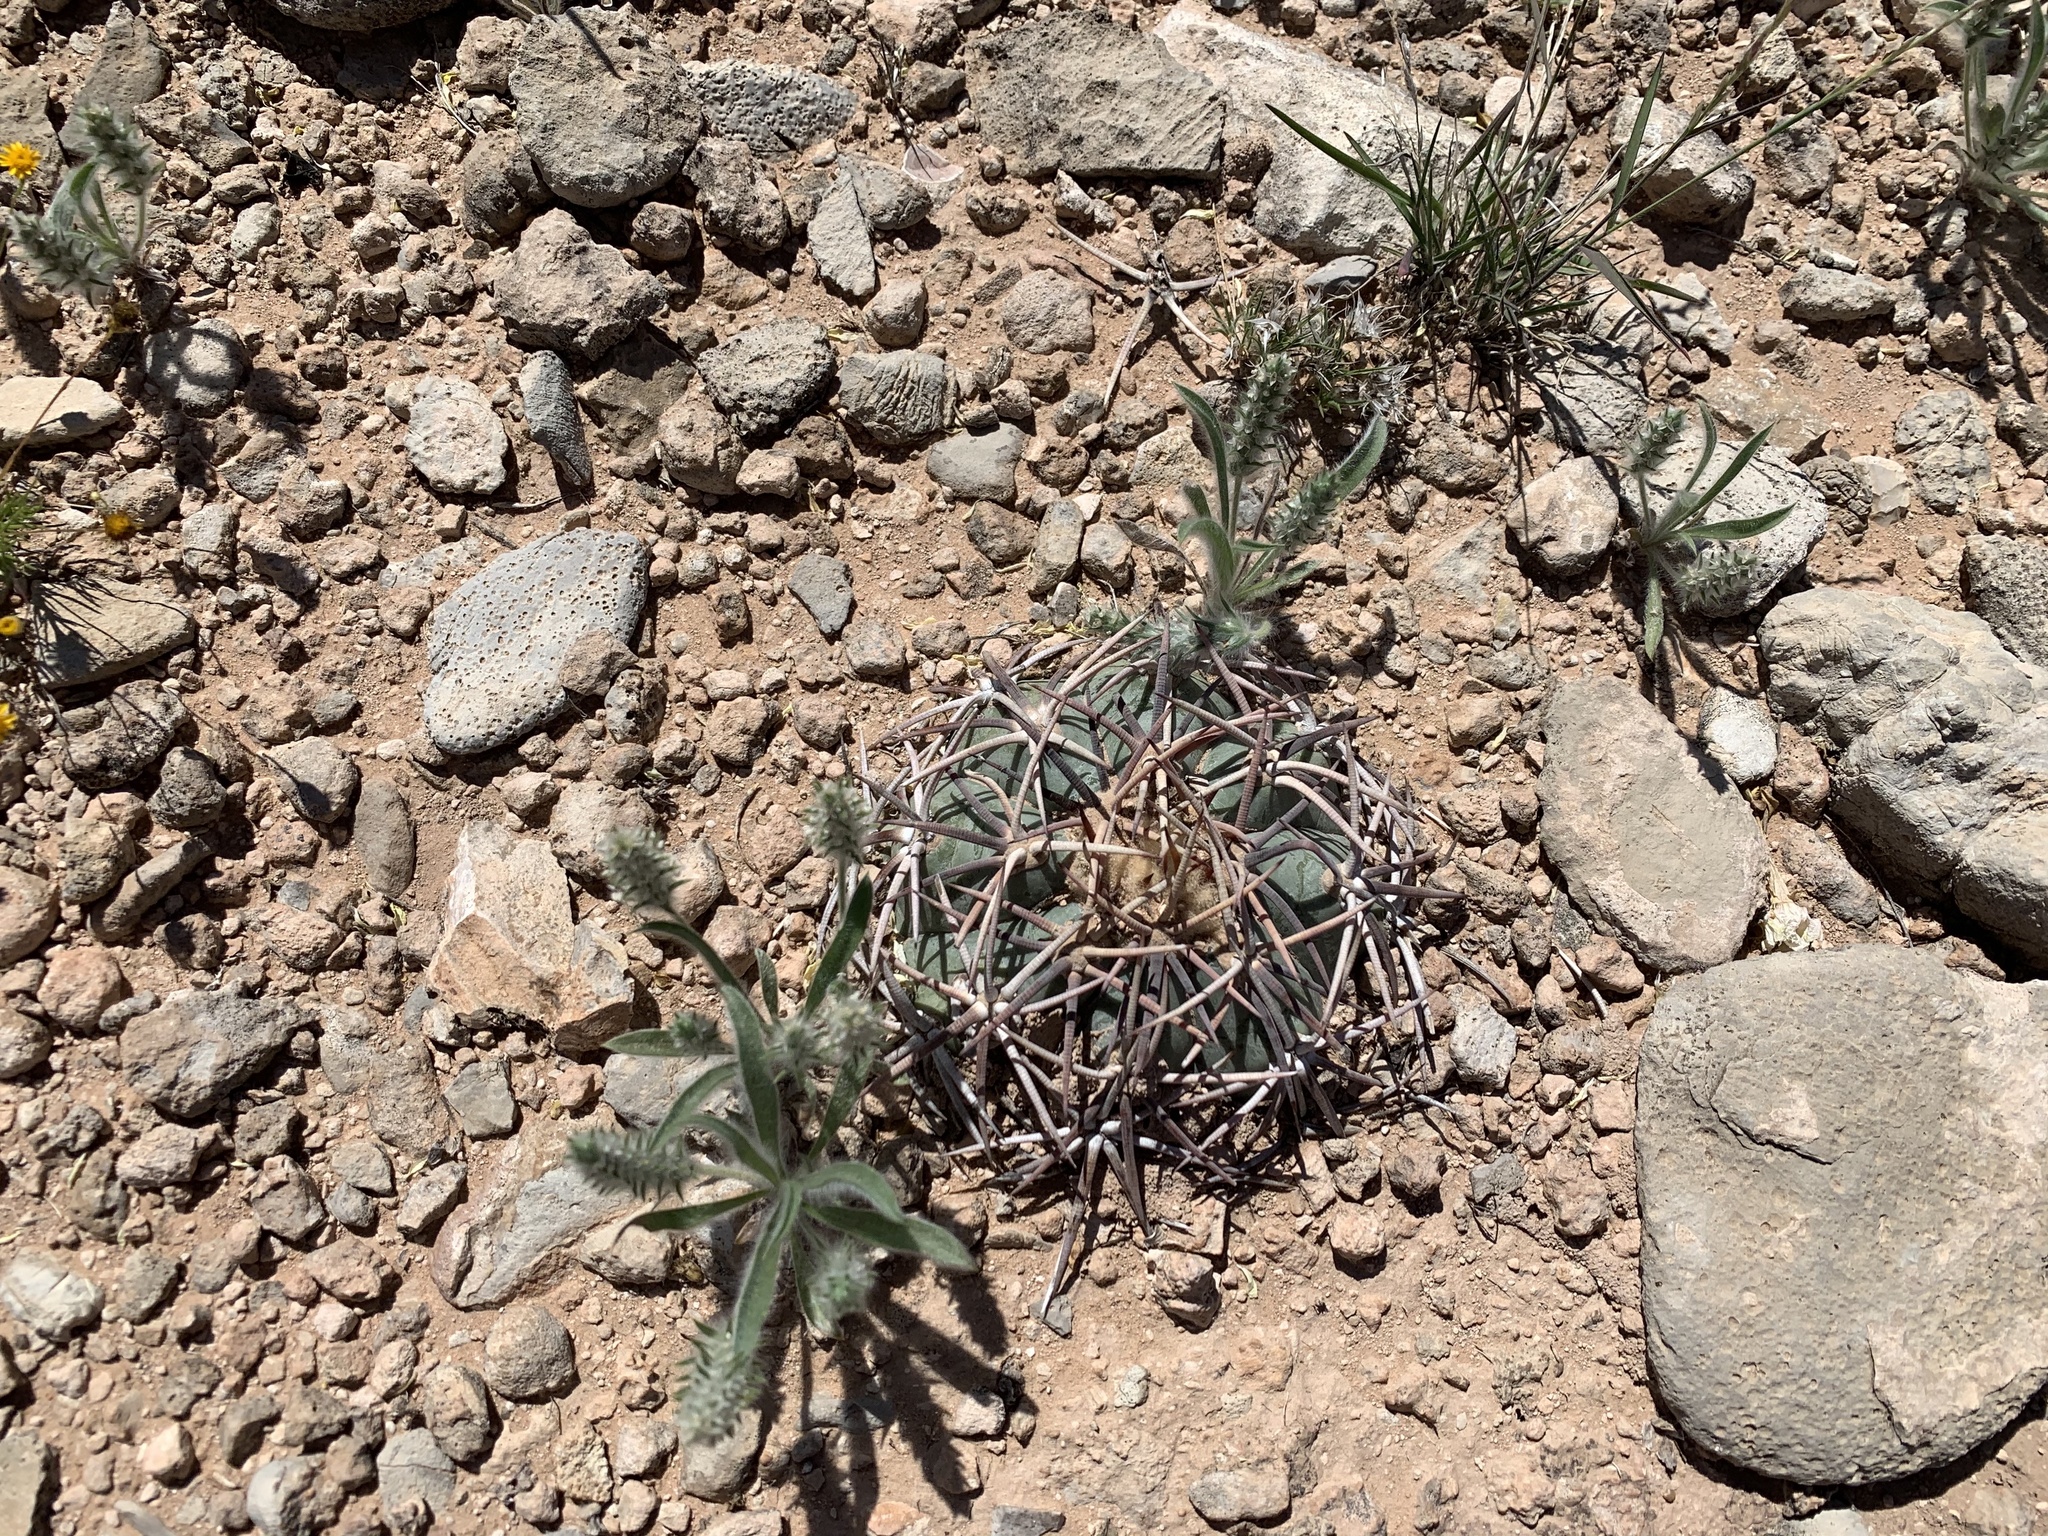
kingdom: Plantae
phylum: Tracheophyta
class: Magnoliopsida
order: Caryophyllales
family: Cactaceae
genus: Echinocactus
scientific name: Echinocactus horizonthalonius
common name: Devilshead
